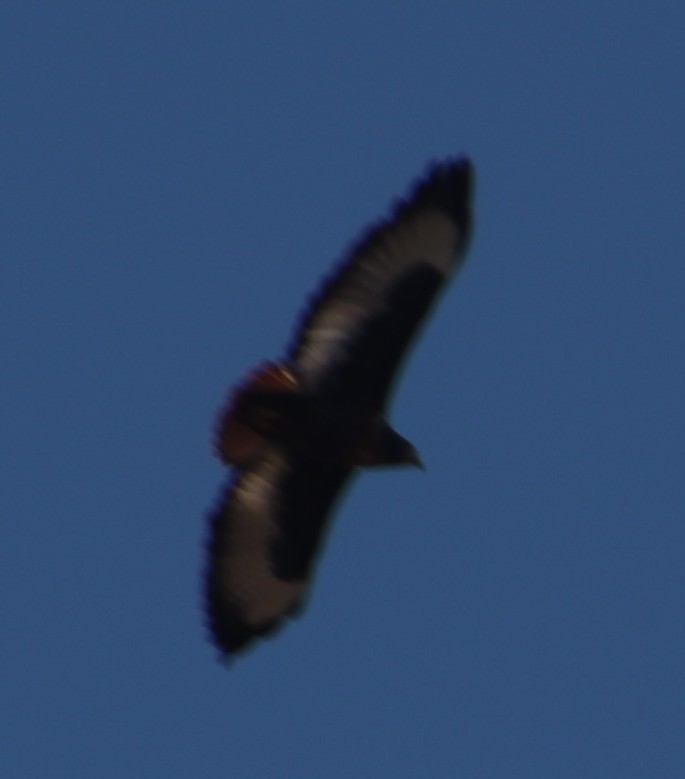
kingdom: Animalia
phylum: Chordata
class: Aves
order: Accipitriformes
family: Accipitridae
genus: Buteo
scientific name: Buteo rufofuscus
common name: Jackal buzzard
